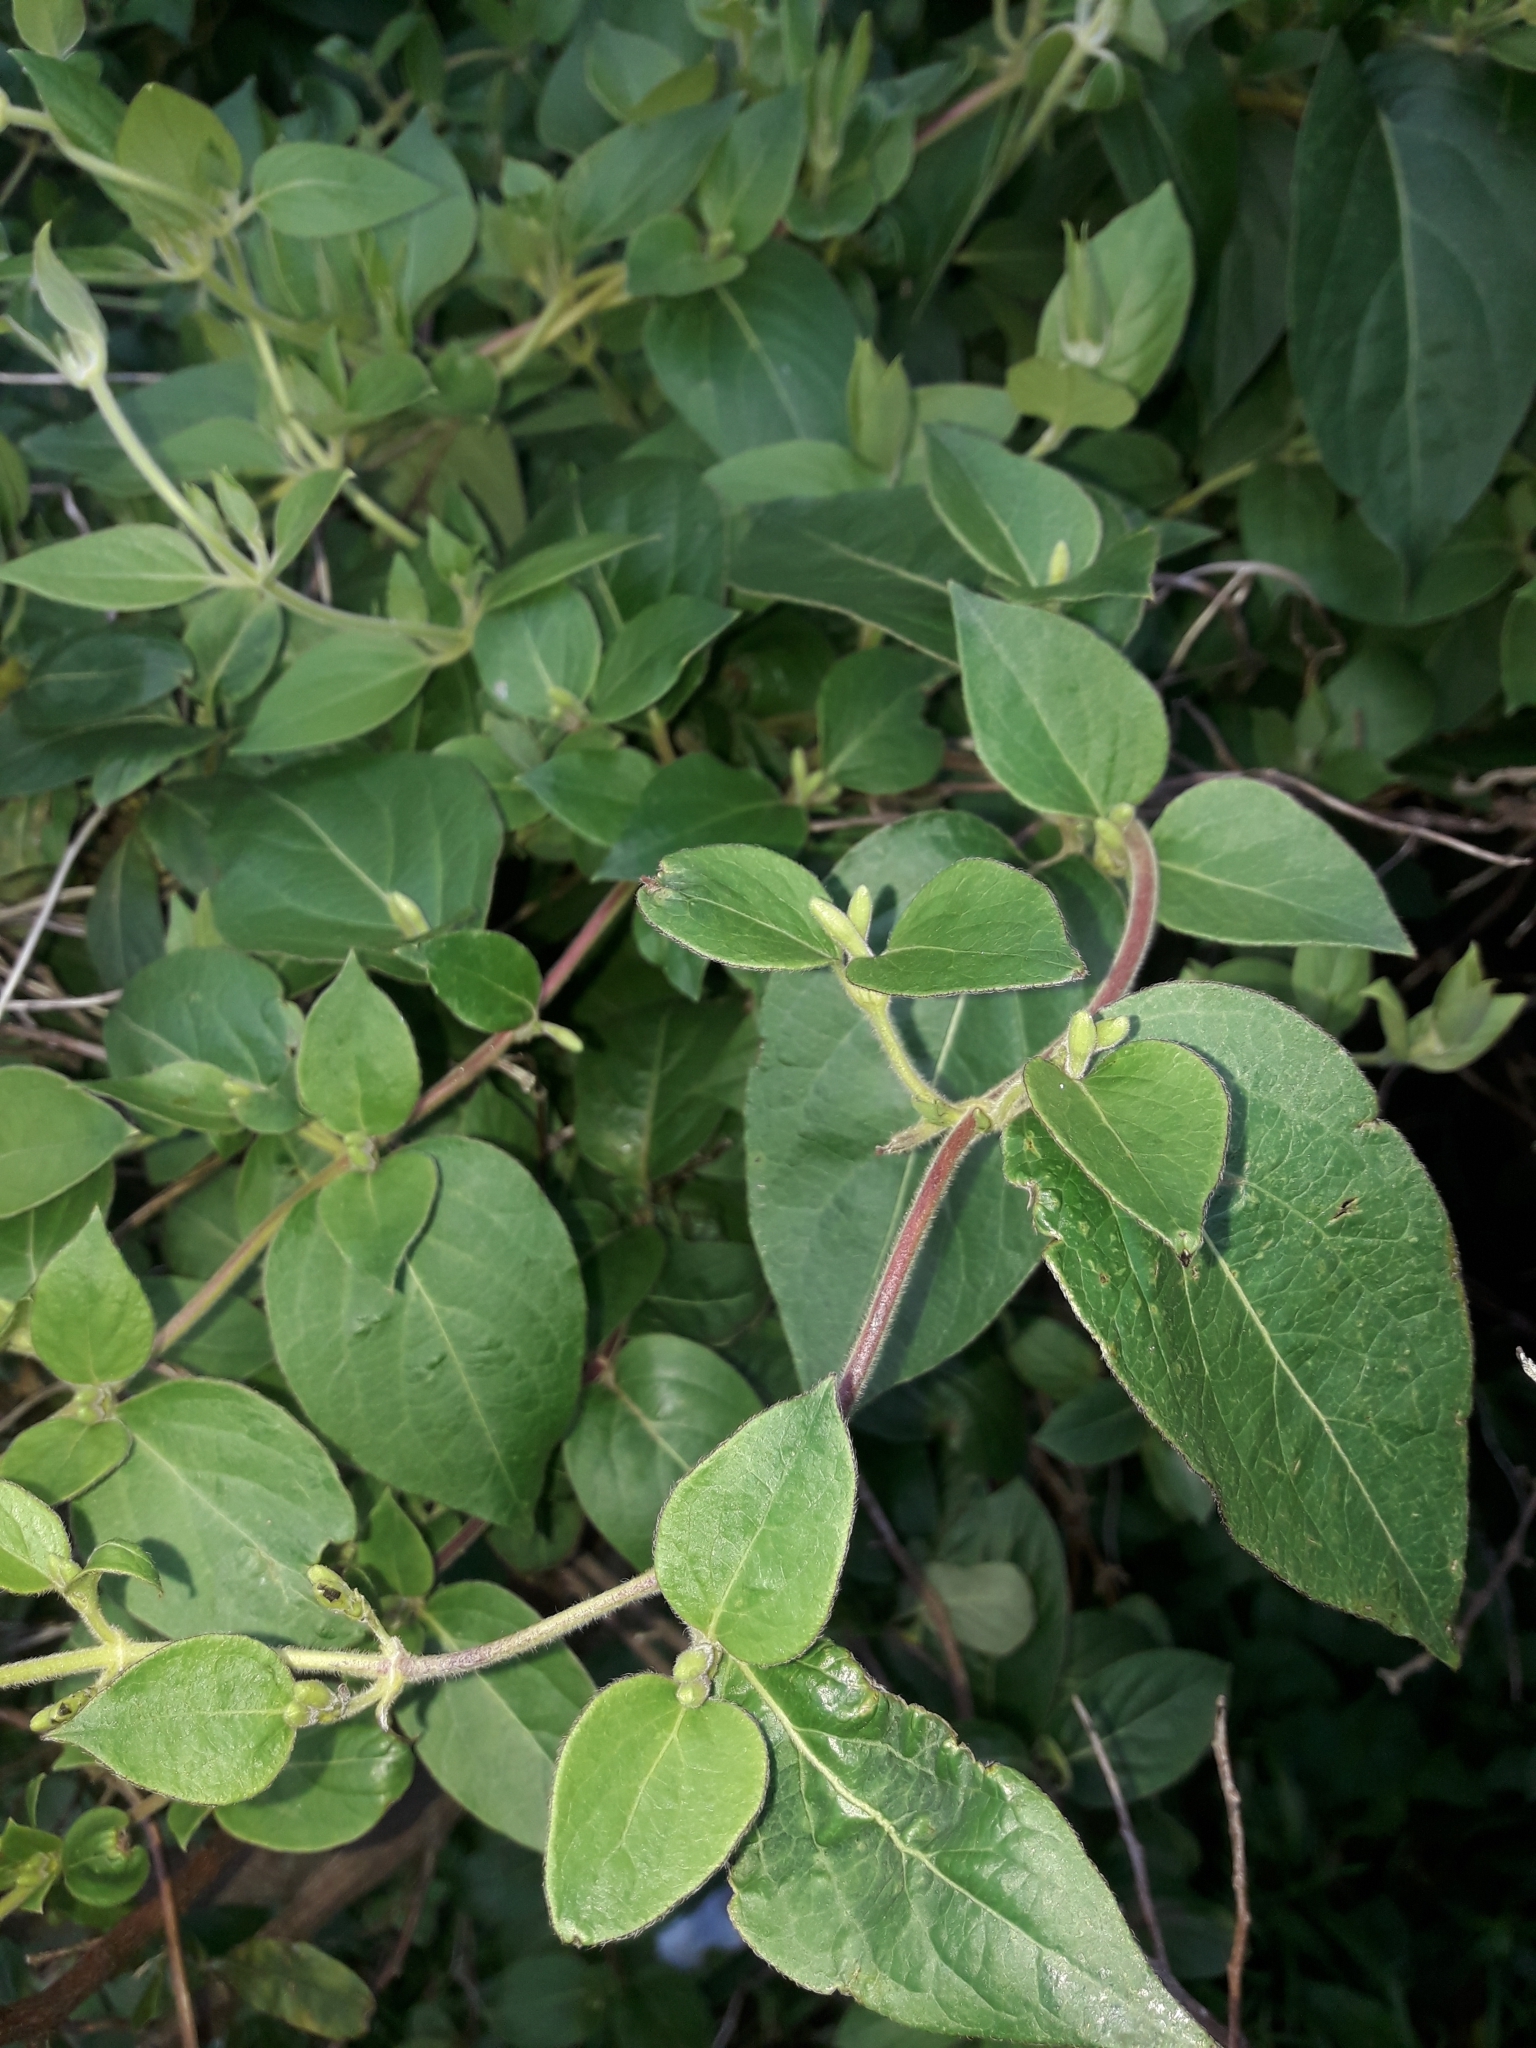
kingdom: Plantae
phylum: Tracheophyta
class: Magnoliopsida
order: Dipsacales
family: Caprifoliaceae
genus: Lonicera
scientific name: Lonicera japonica
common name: Japanese honeysuckle
